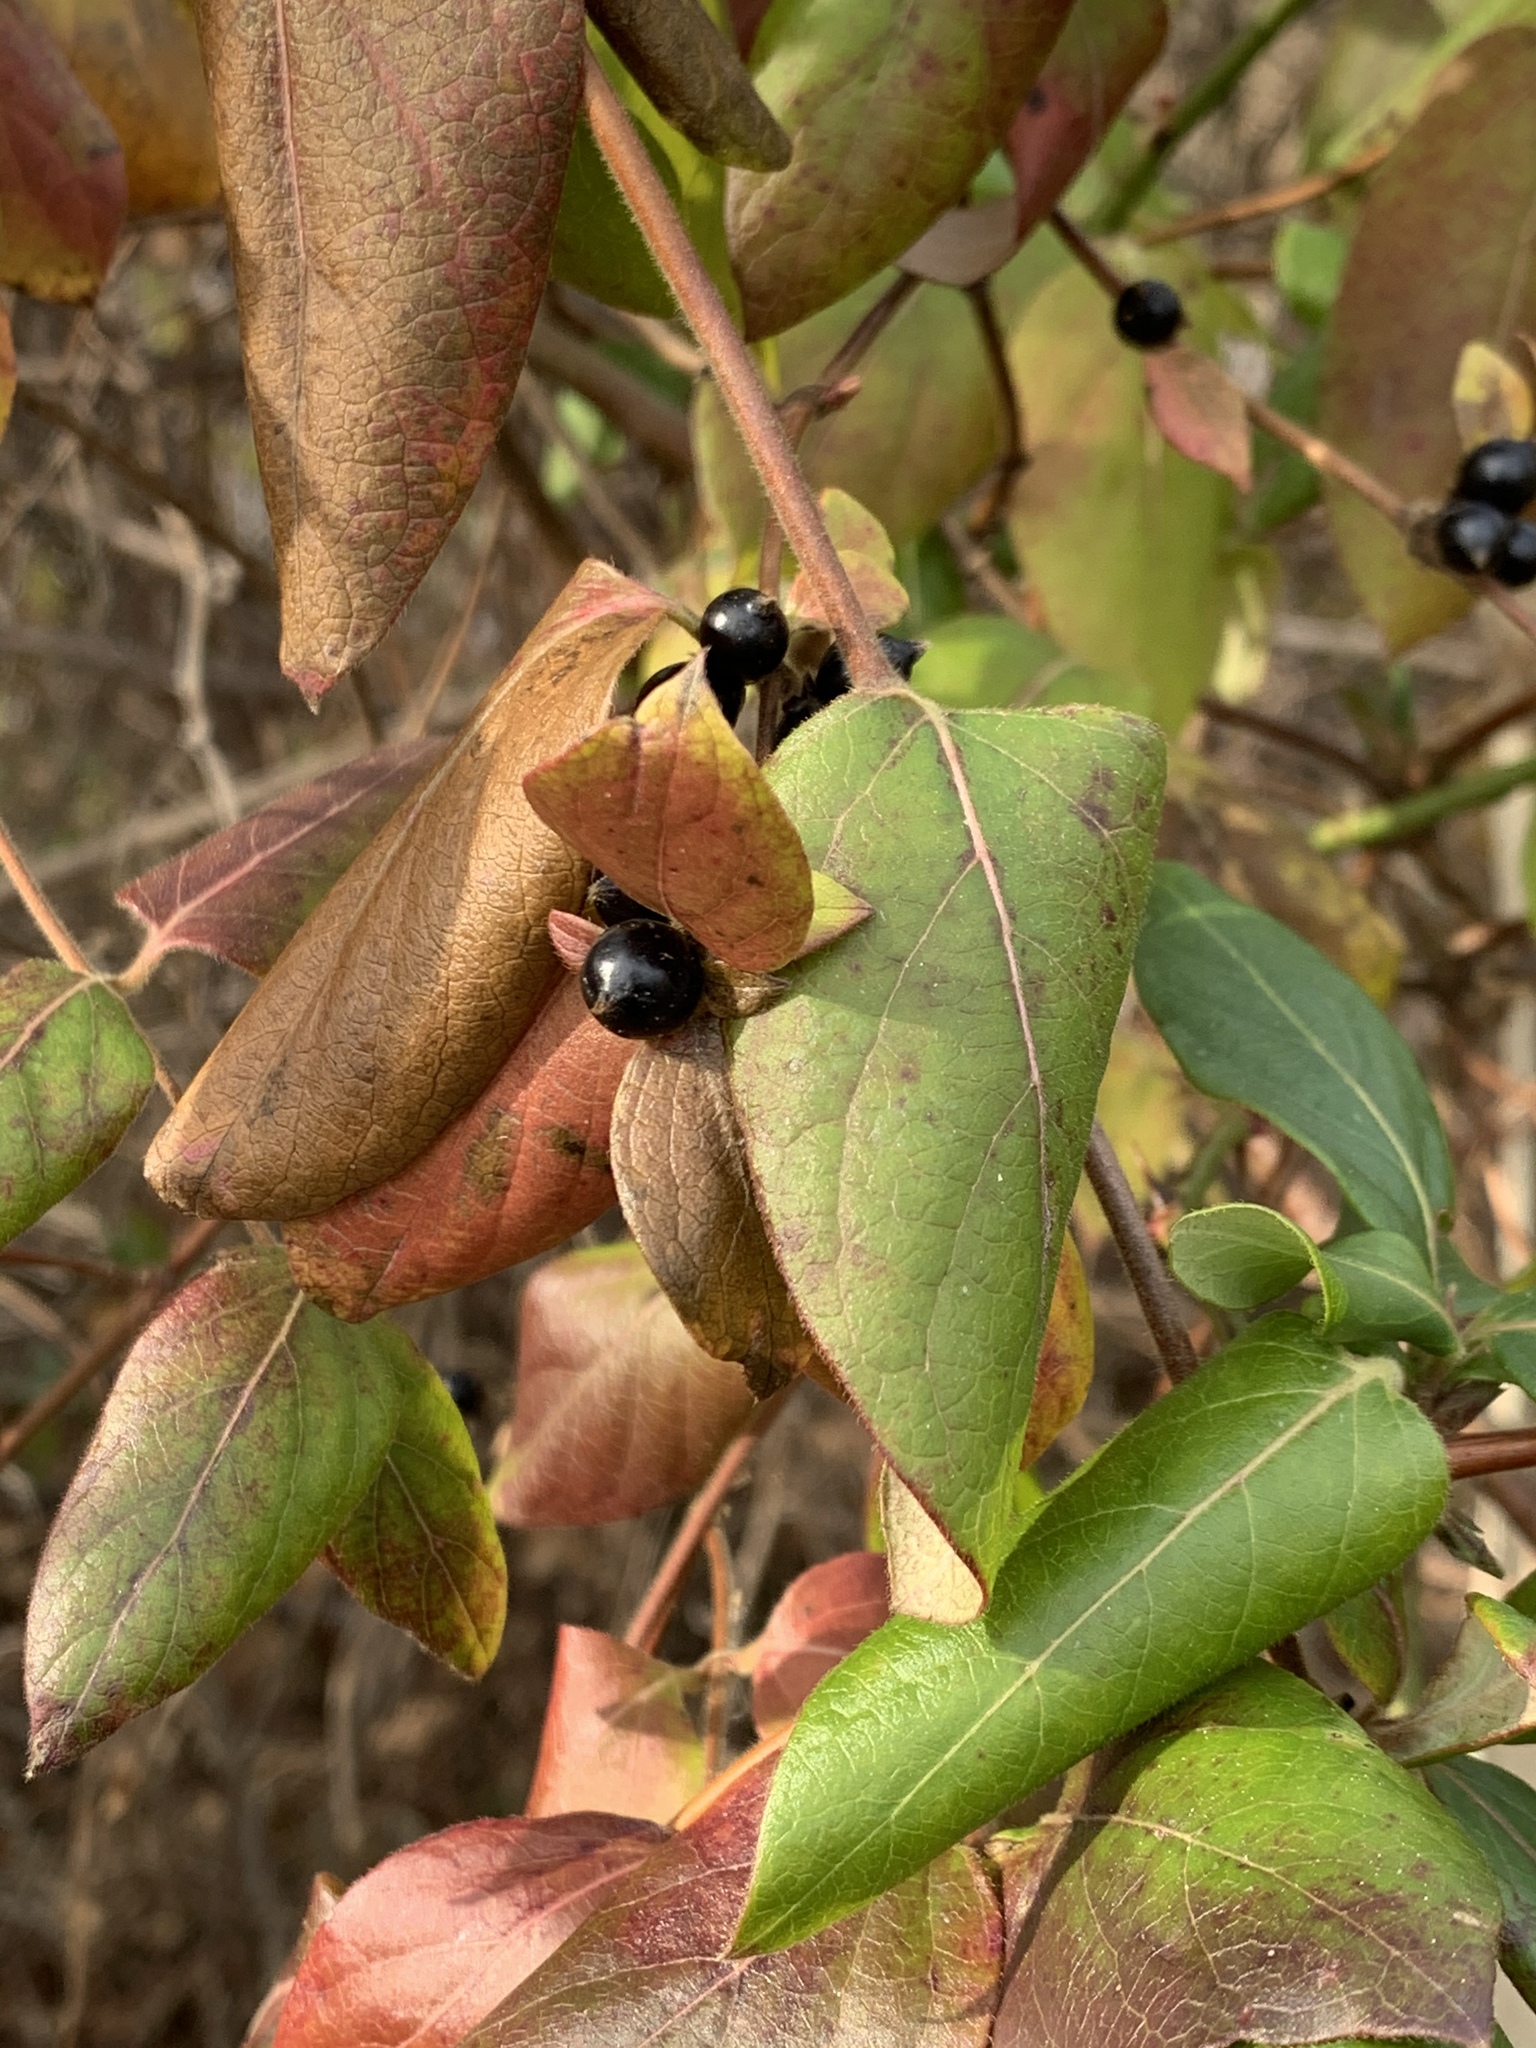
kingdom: Plantae
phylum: Tracheophyta
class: Magnoliopsida
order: Dipsacales
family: Caprifoliaceae
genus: Lonicera
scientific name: Lonicera japonica
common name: Japanese honeysuckle
